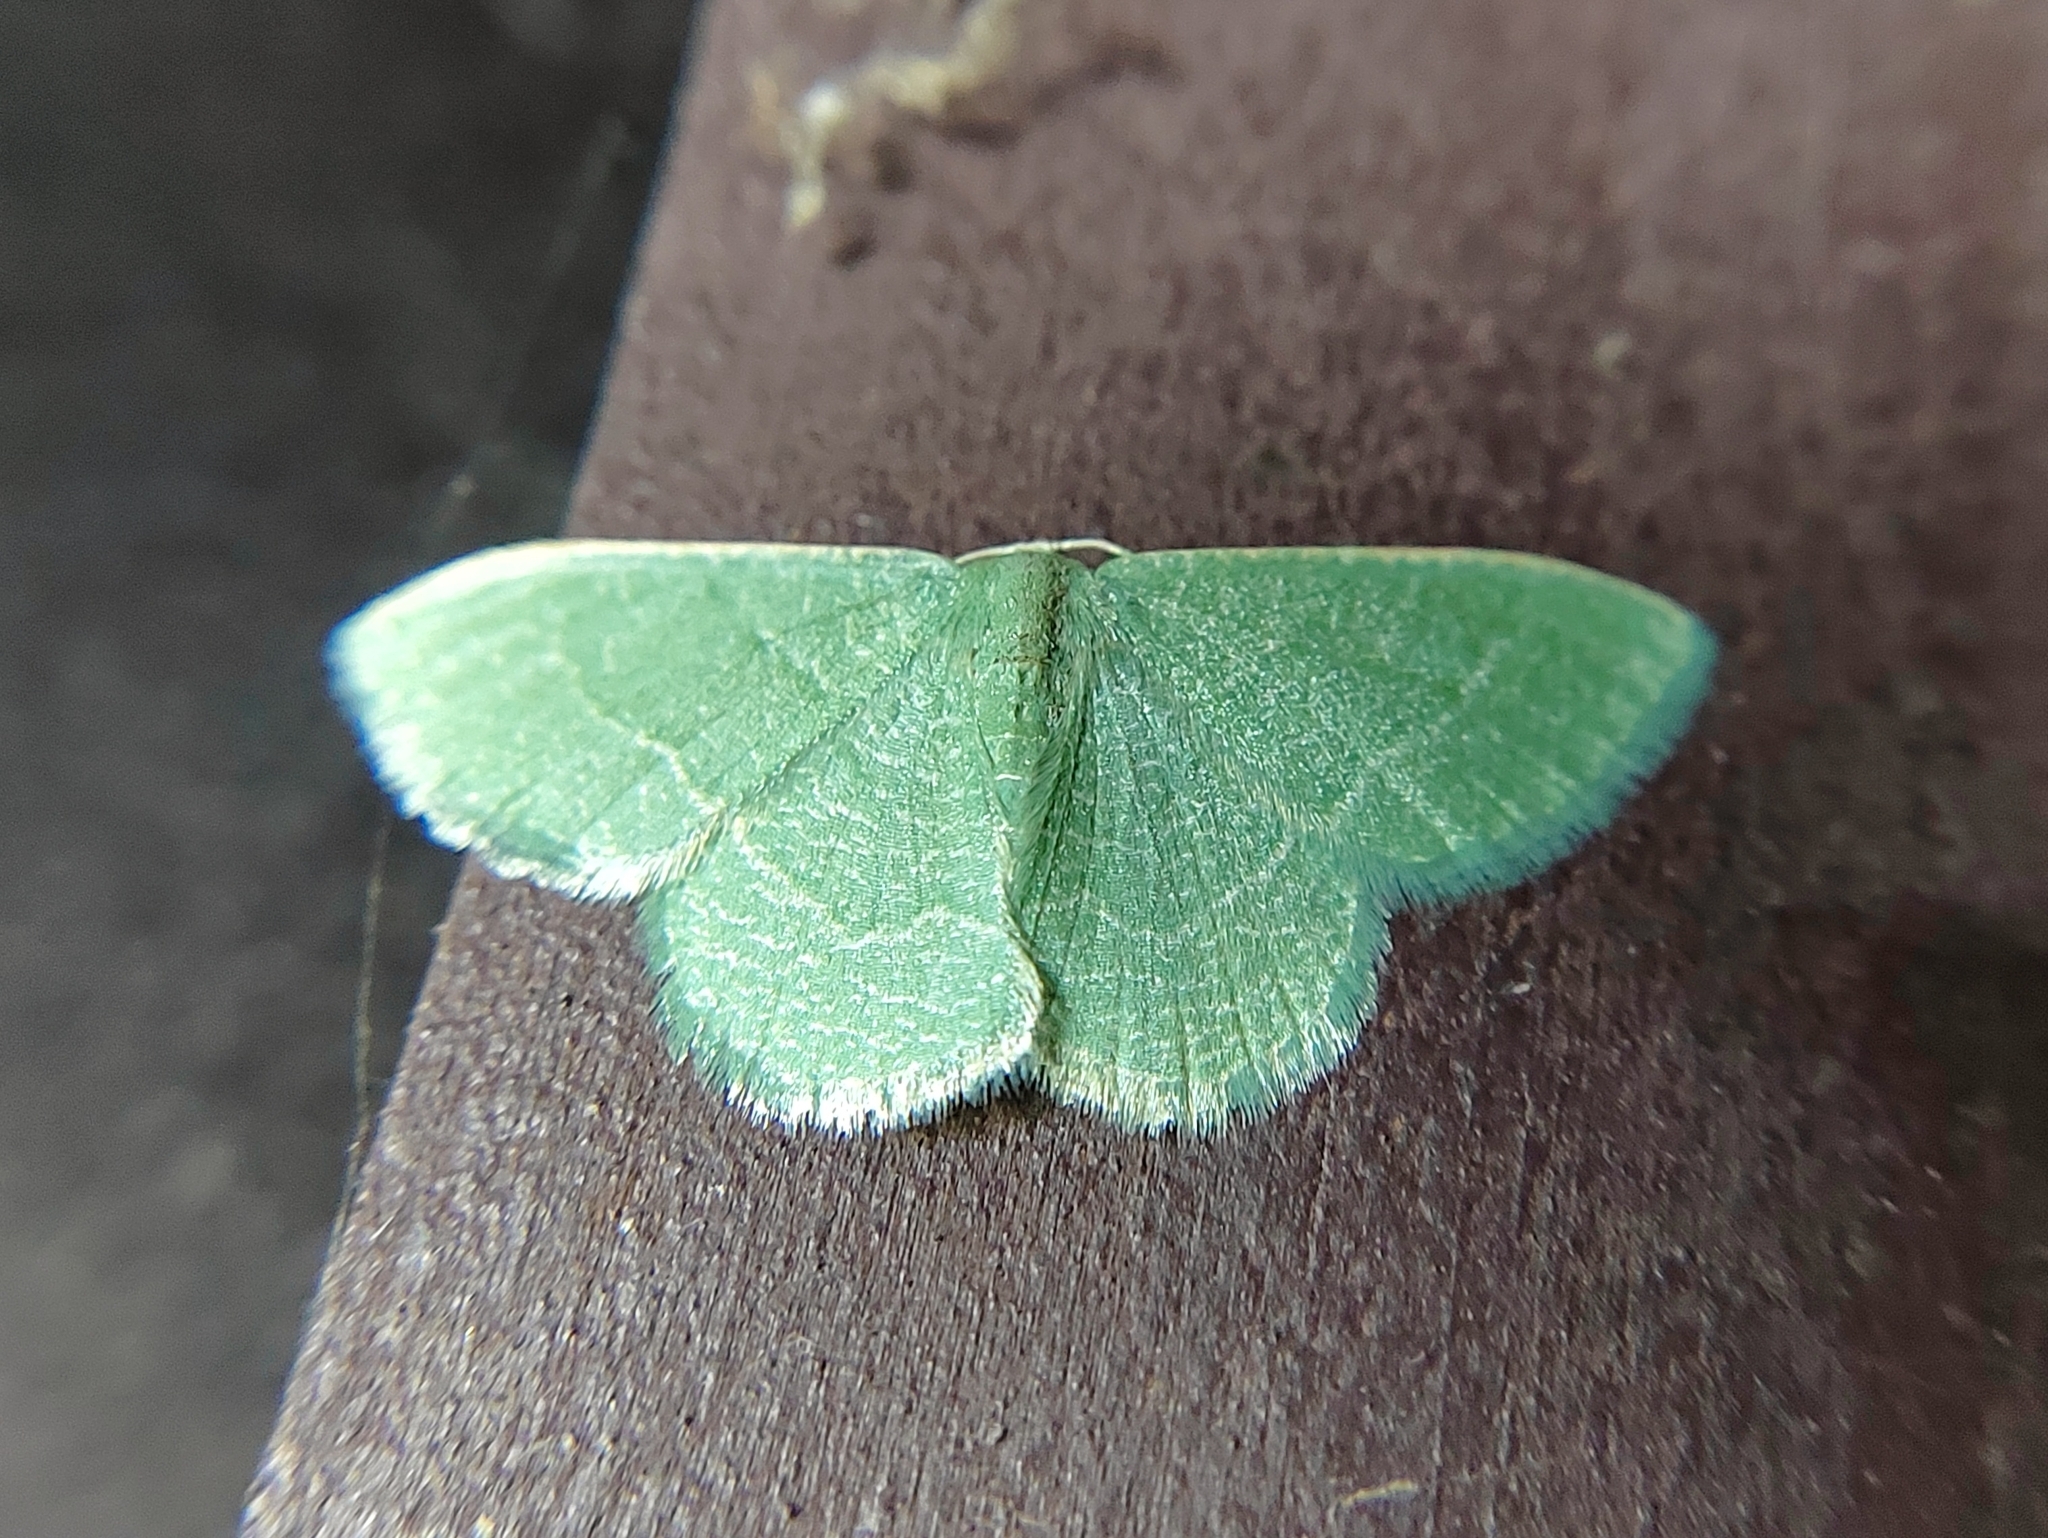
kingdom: Animalia
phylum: Arthropoda
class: Insecta
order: Lepidoptera
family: Geometridae
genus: Chlorissa
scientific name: Chlorissa etruscaria
